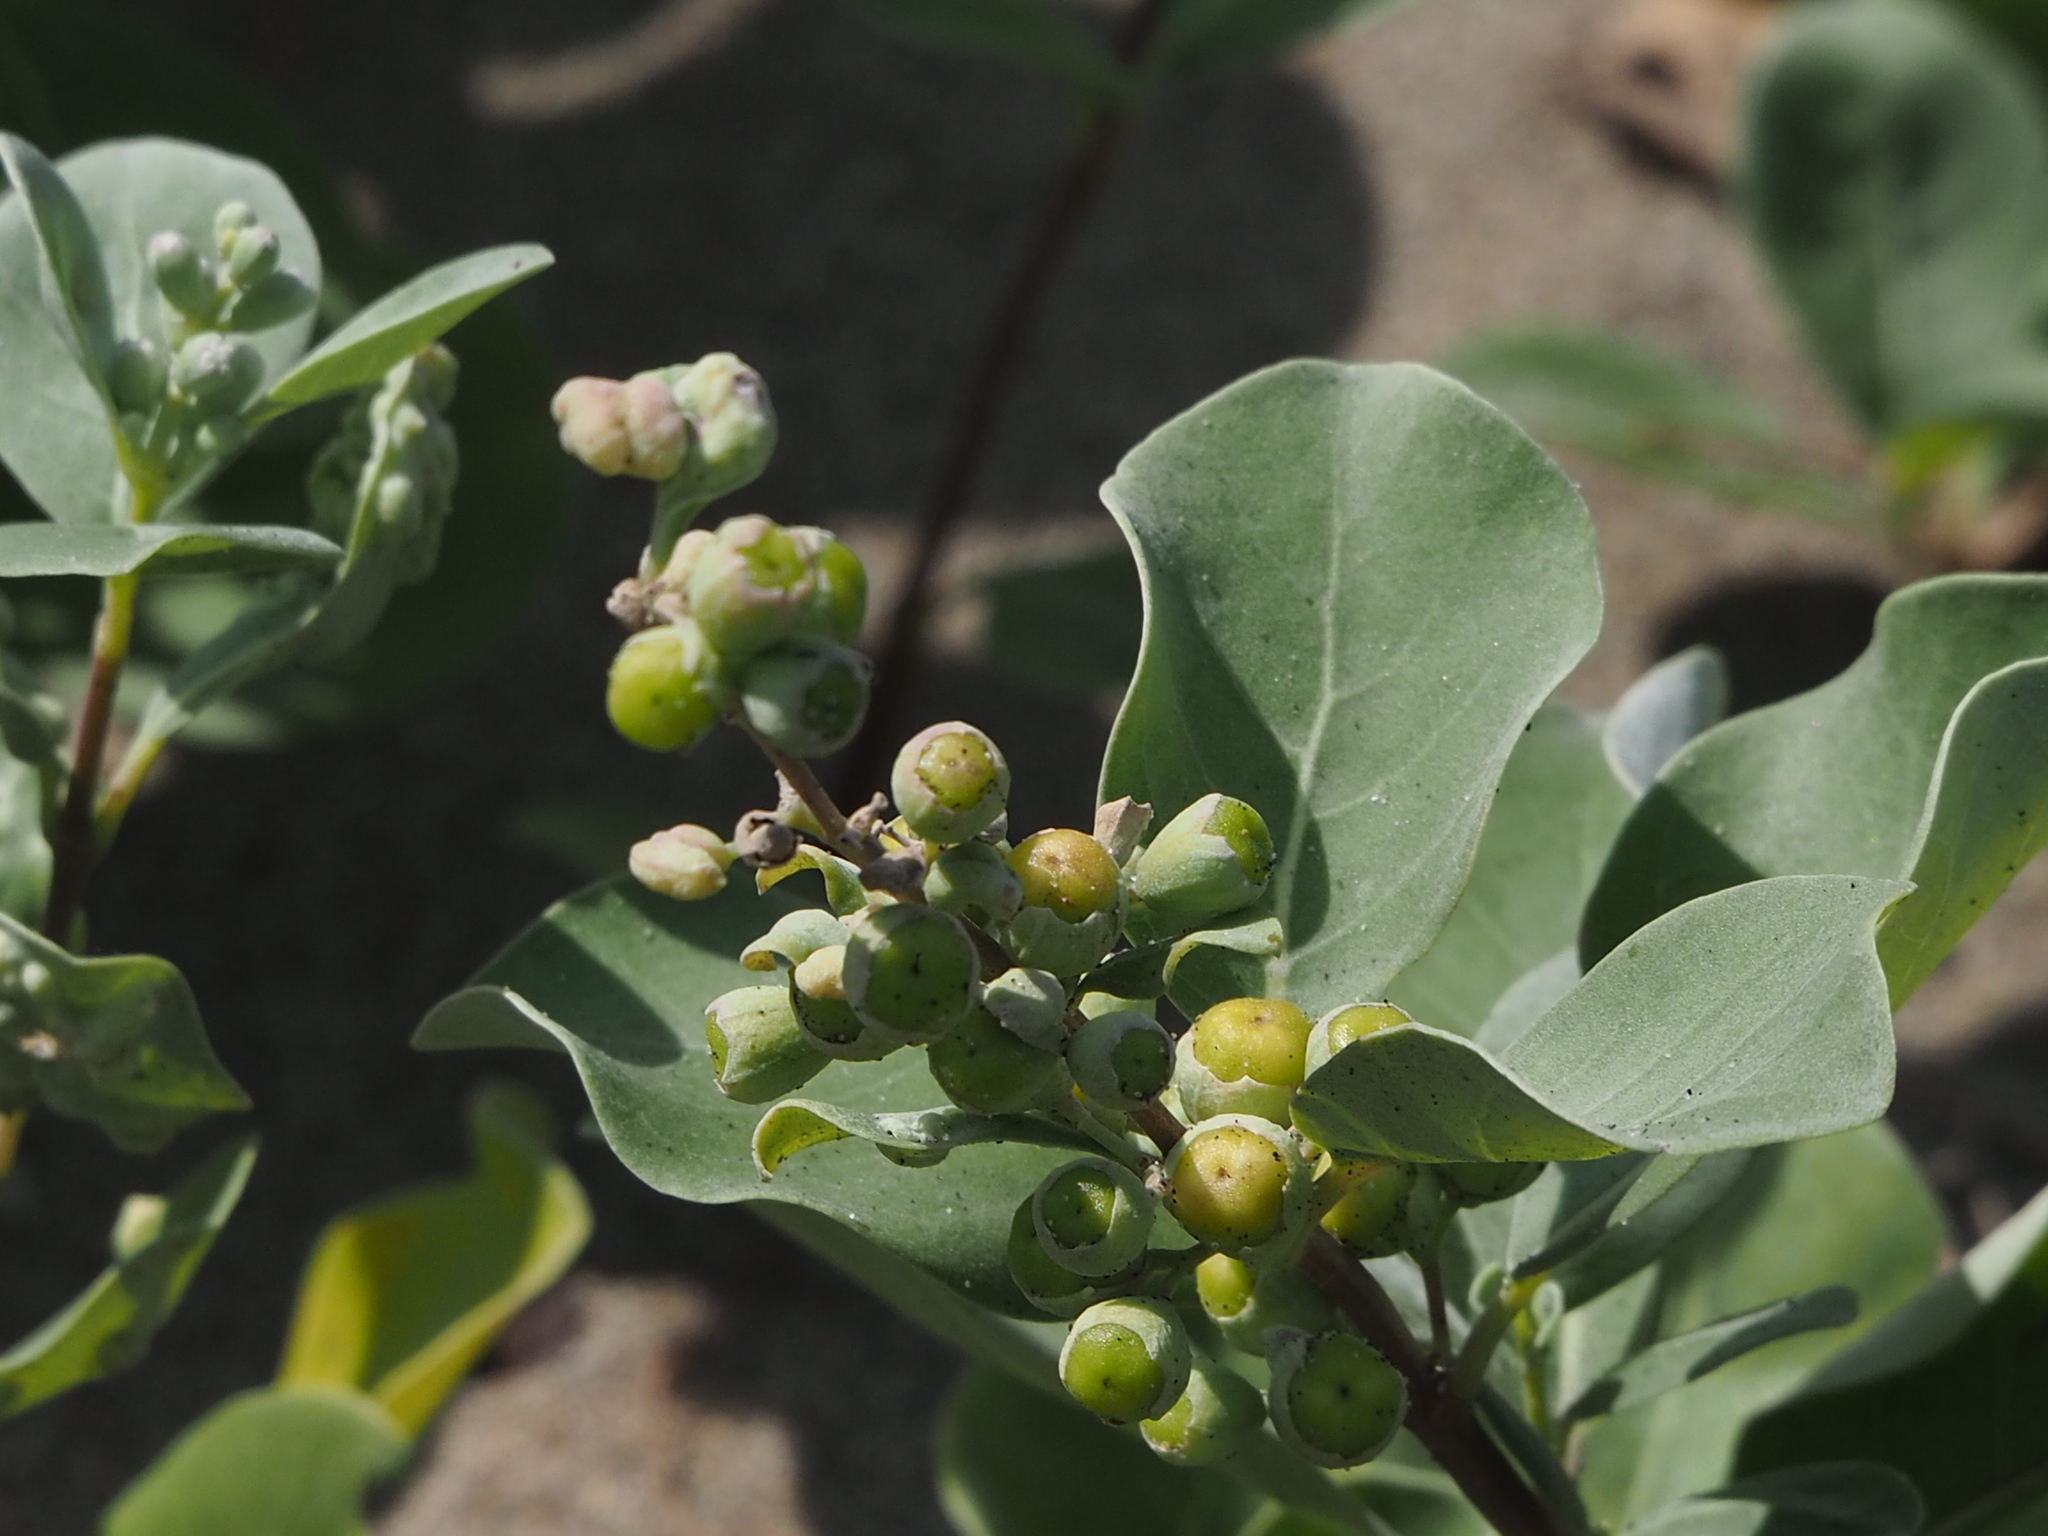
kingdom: Plantae
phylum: Tracheophyta
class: Magnoliopsida
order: Lamiales
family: Lamiaceae
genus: Vitex
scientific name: Vitex rotundifolia
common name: Beach vitex
